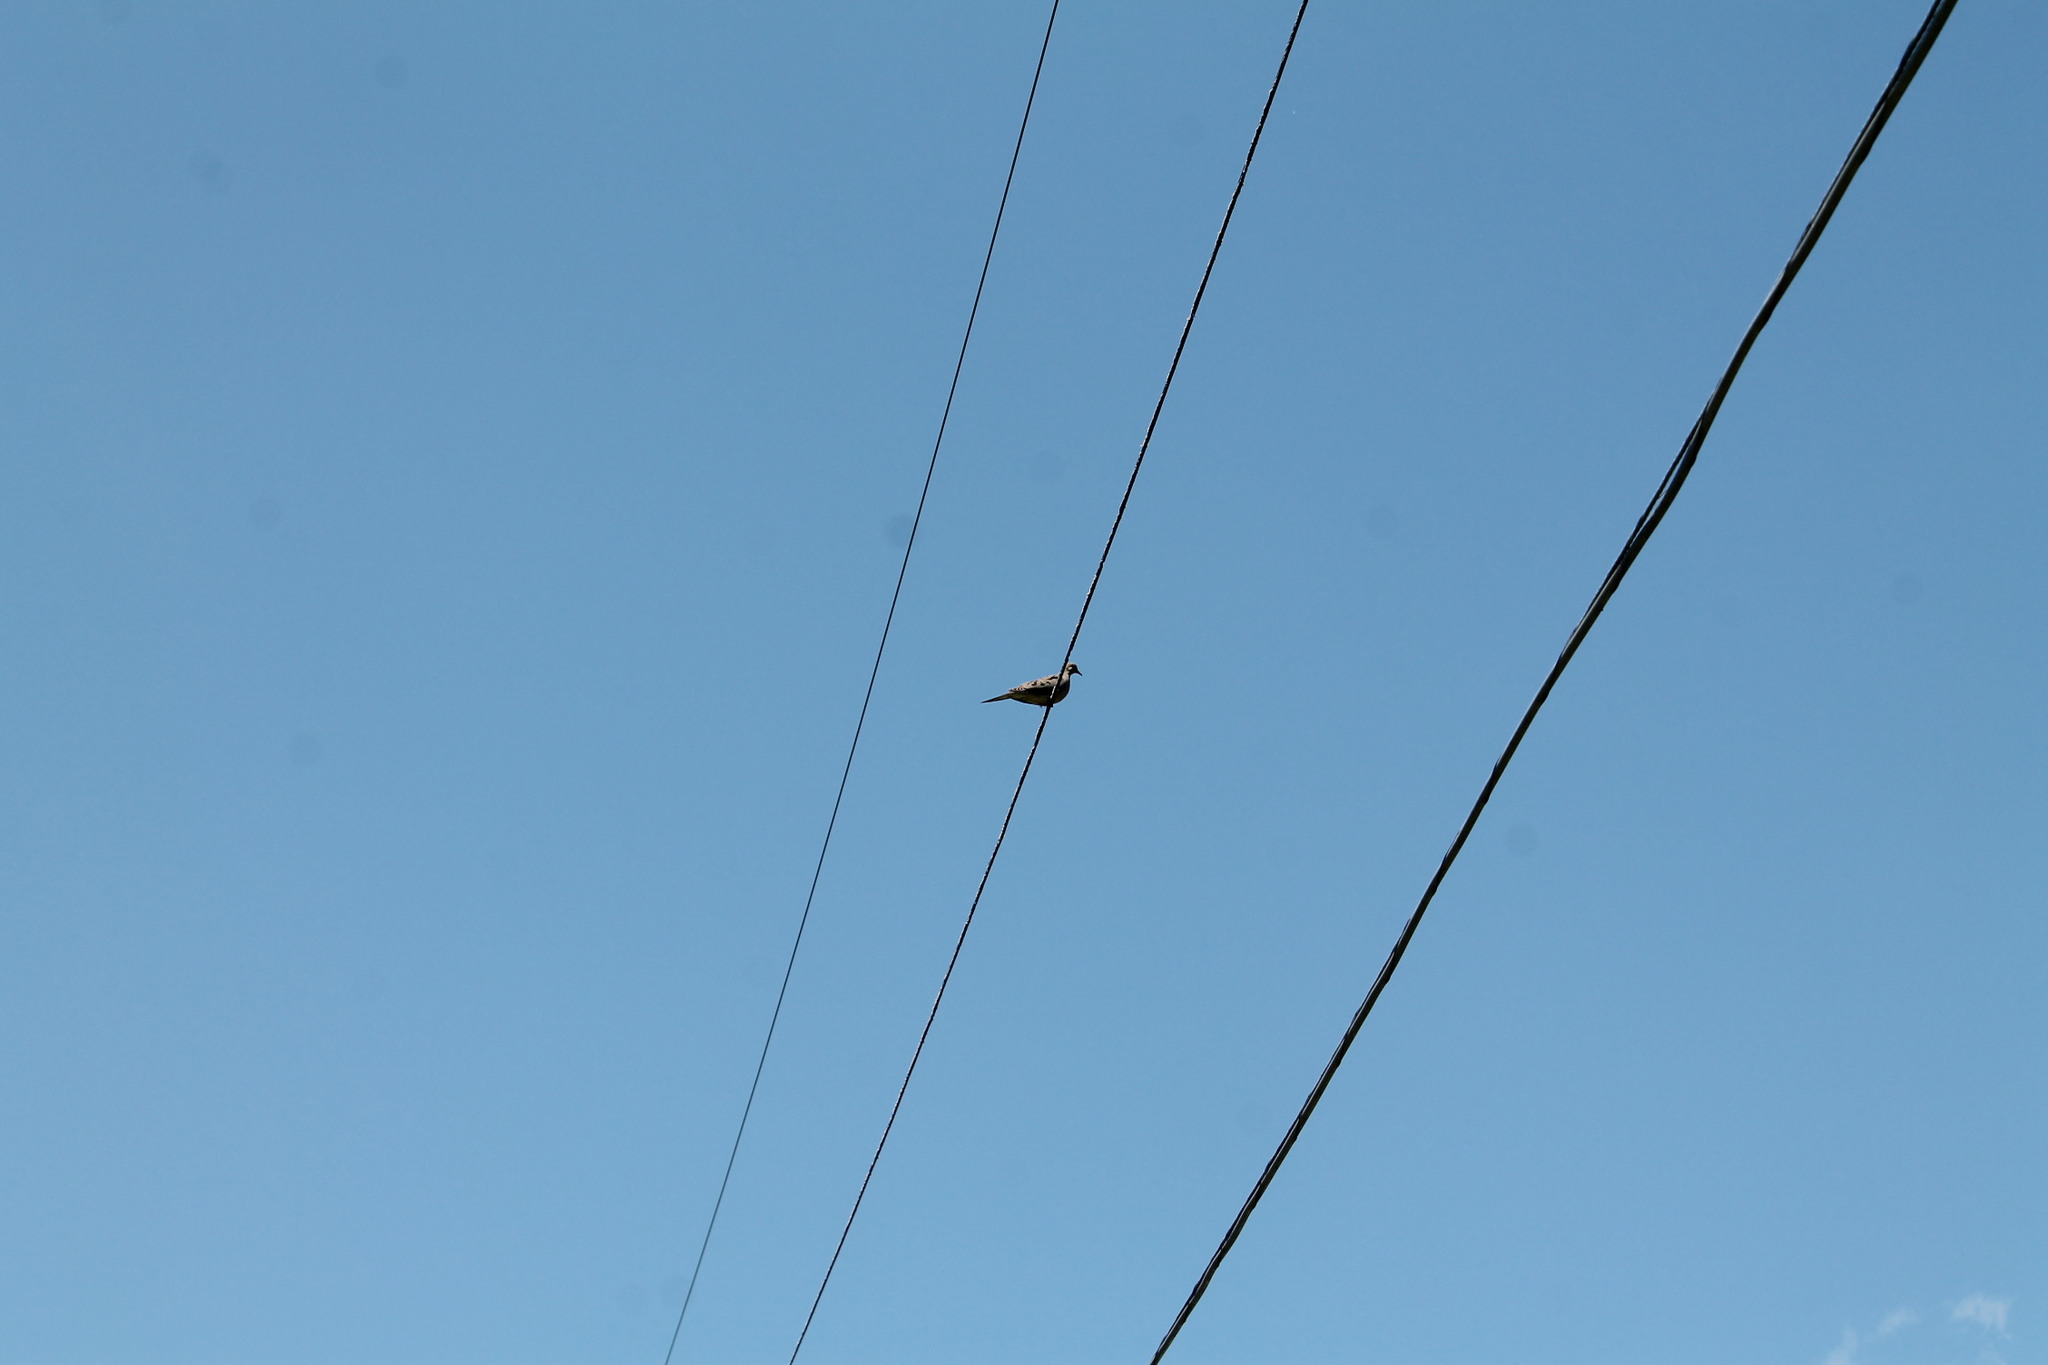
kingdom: Animalia
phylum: Chordata
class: Aves
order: Columbiformes
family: Columbidae
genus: Zenaida
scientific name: Zenaida macroura
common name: Mourning dove
